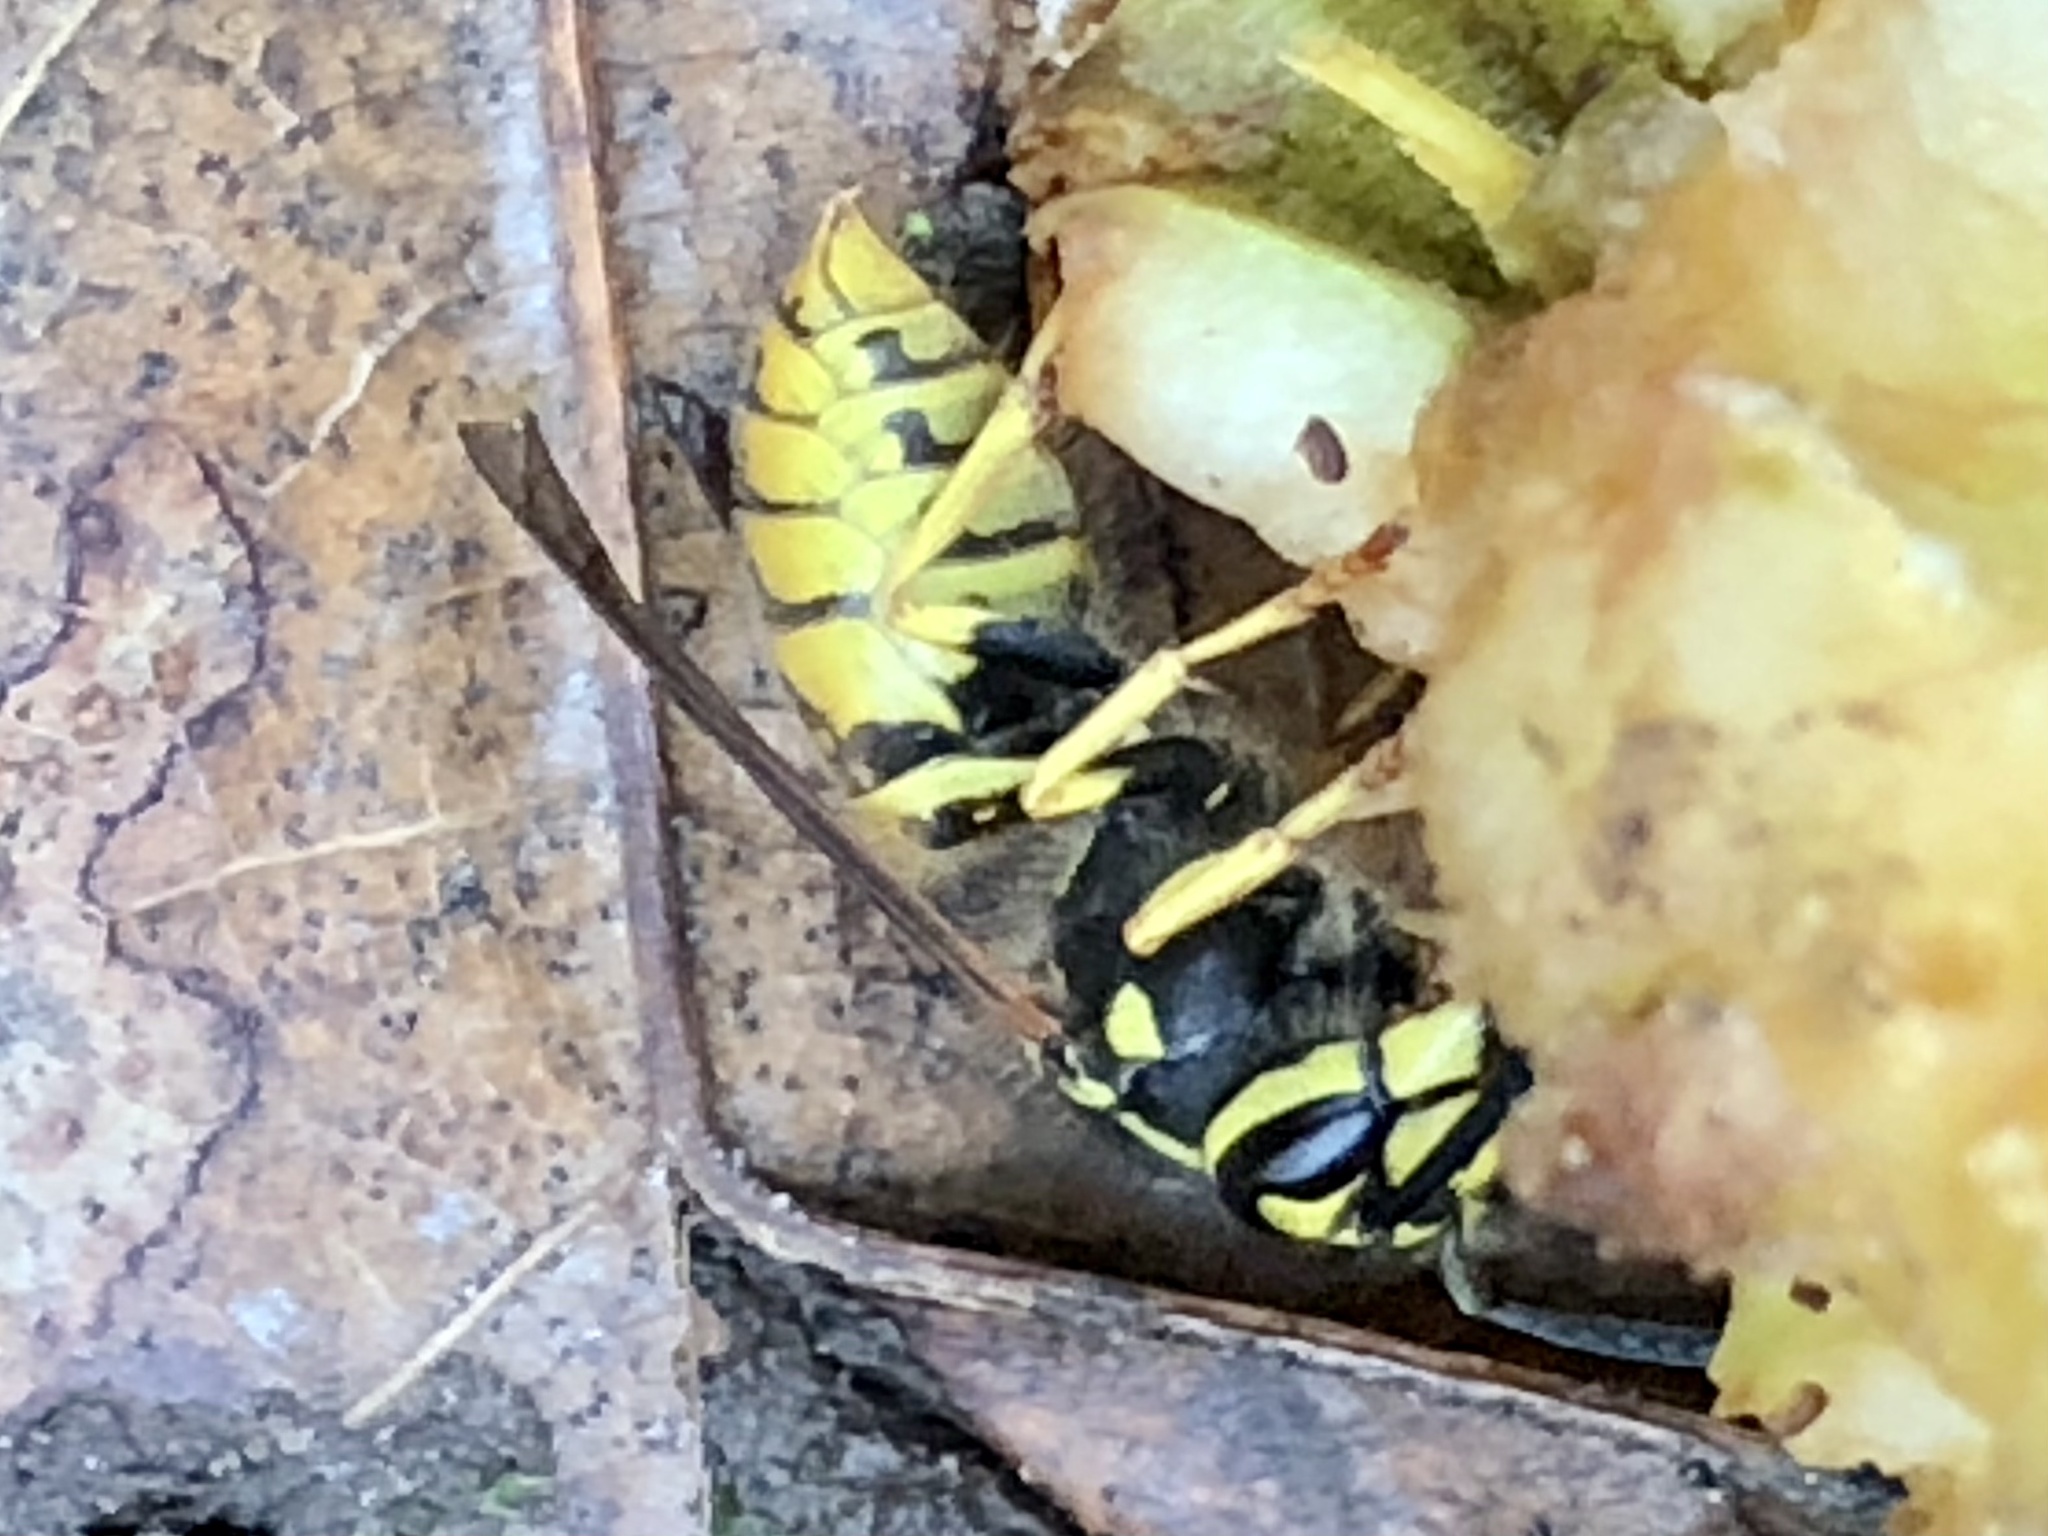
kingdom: Animalia
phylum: Arthropoda
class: Insecta
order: Hymenoptera
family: Vespidae
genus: Vespula
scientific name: Vespula germanica
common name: German wasp
